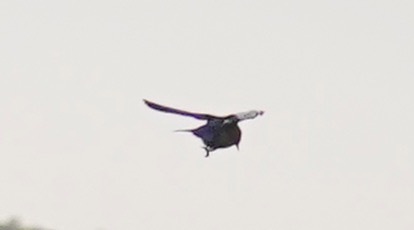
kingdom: Animalia
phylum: Chordata
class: Aves
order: Passeriformes
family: Turdidae
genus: Sialia
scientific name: Sialia mexicana
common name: Western bluebird
